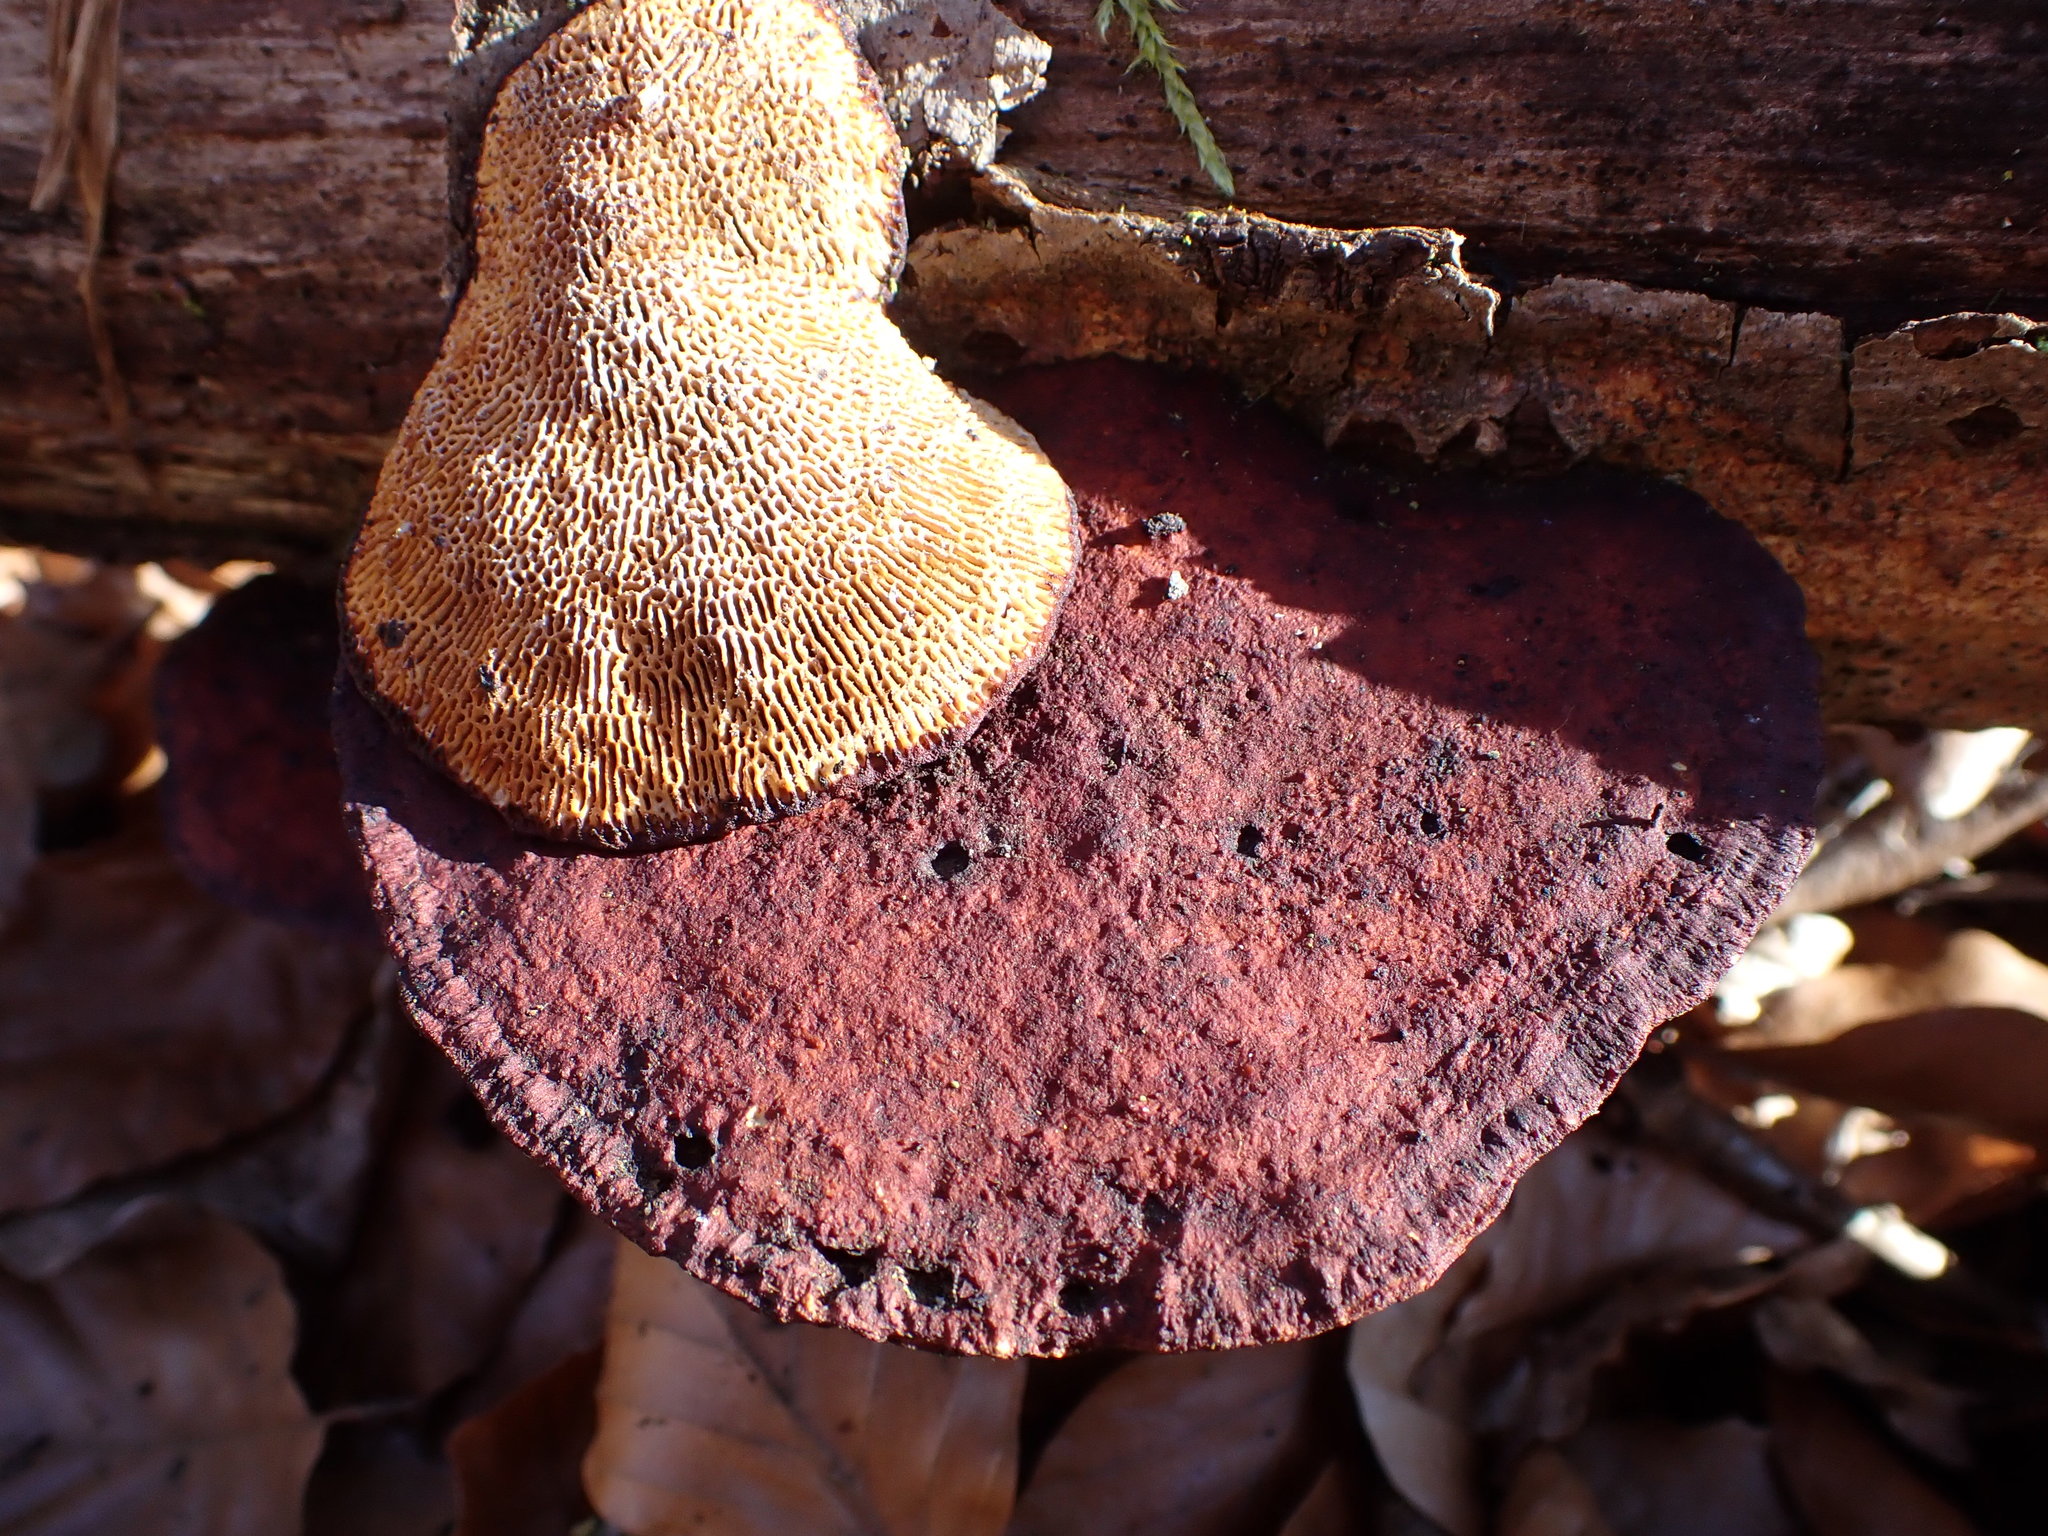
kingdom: Fungi
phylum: Basidiomycota
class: Agaricomycetes
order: Polyporales
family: Polyporaceae
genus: Daedaleopsis
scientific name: Daedaleopsis confragosa
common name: Blushing bracket
